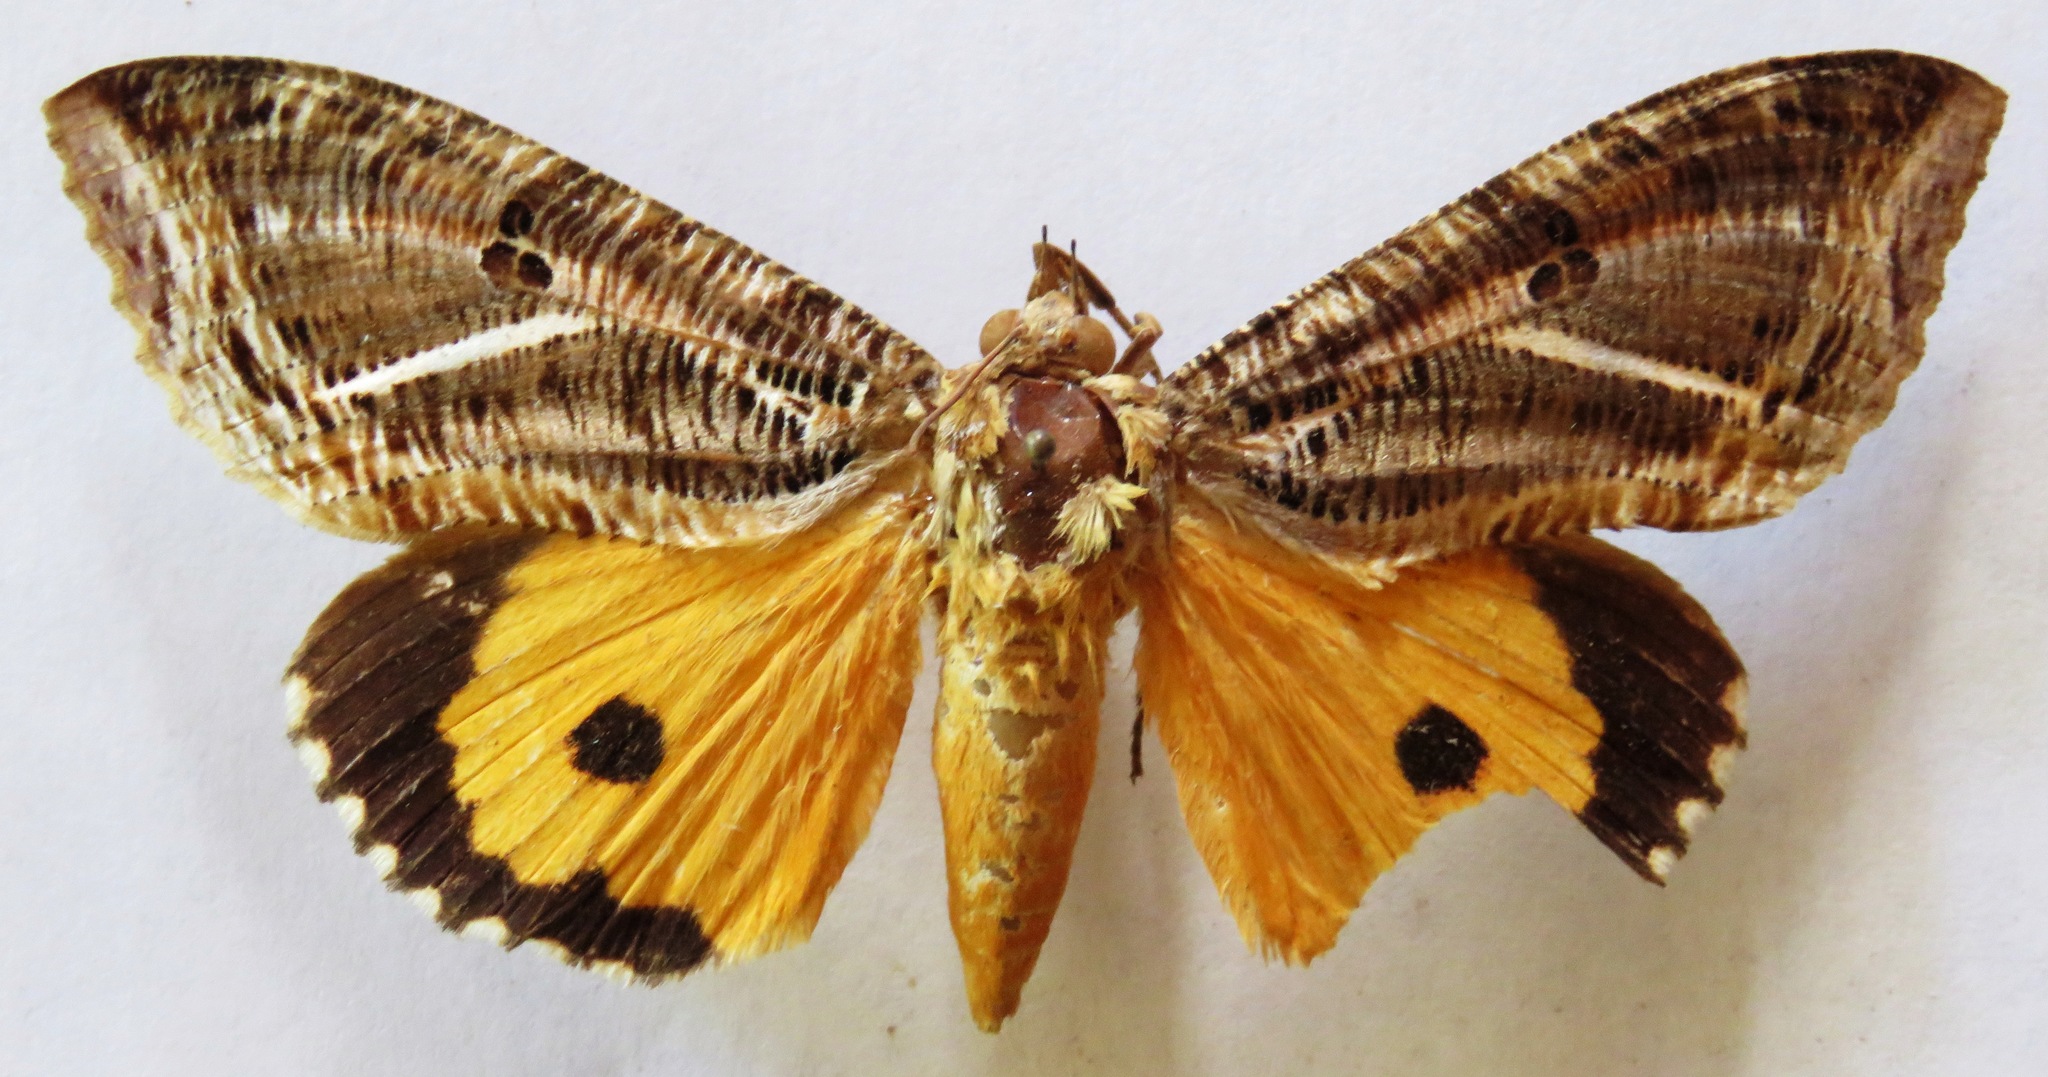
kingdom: Animalia
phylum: Arthropoda
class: Insecta
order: Lepidoptera
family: Erebidae
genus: Eudocima
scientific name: Eudocima apta
